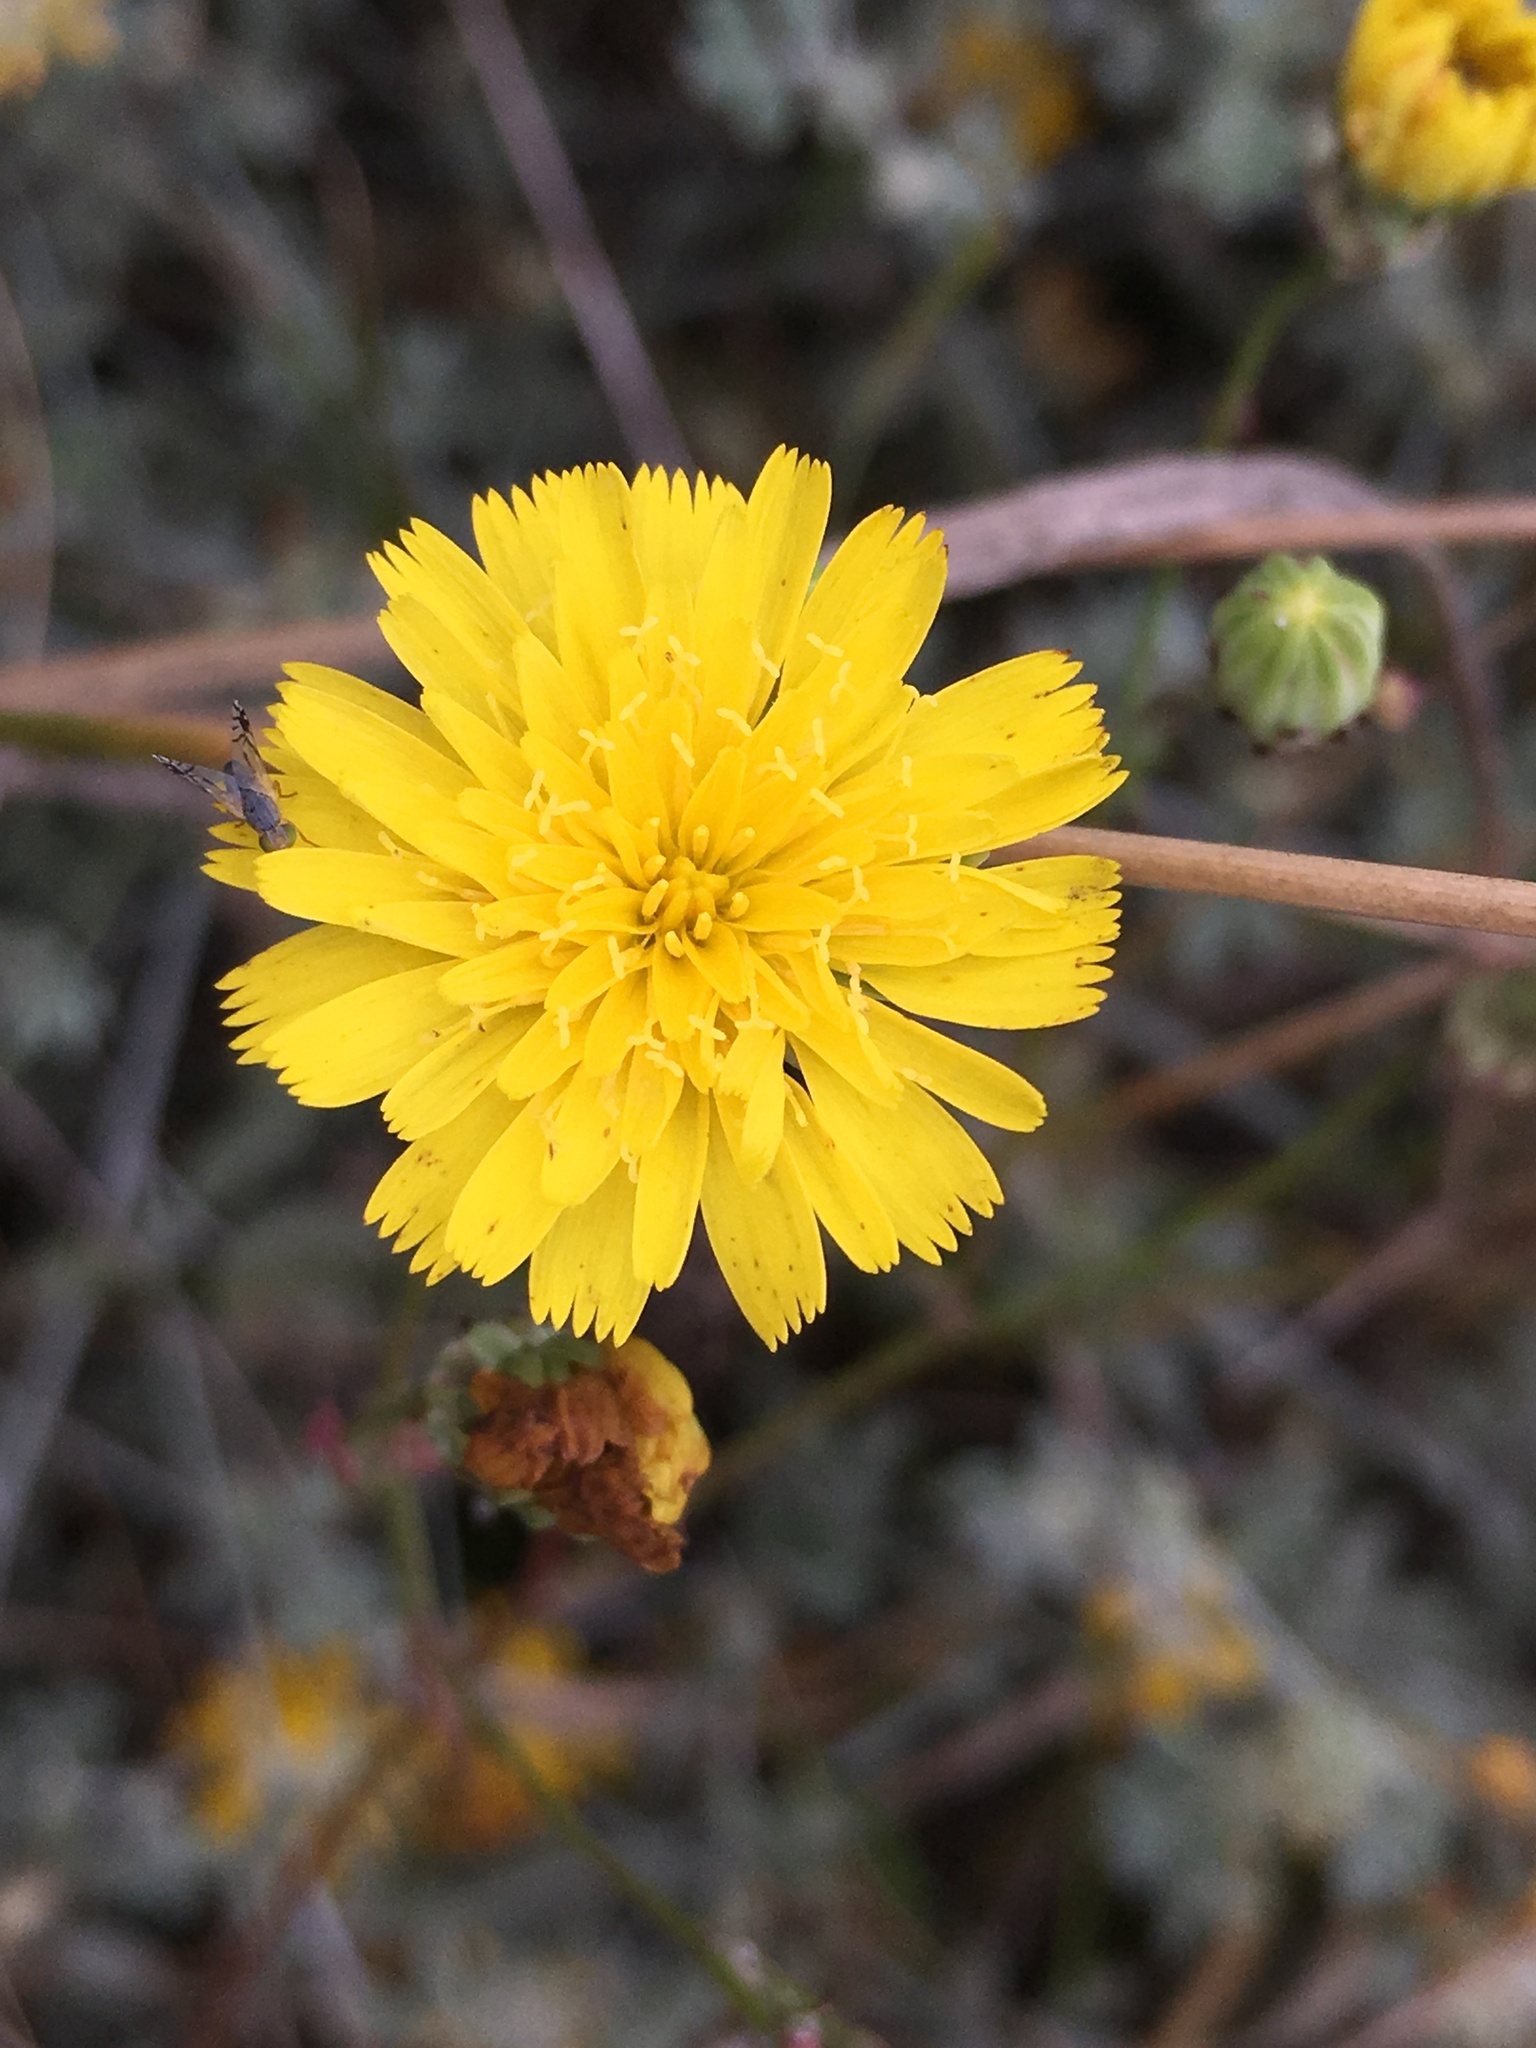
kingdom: Plantae
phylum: Tracheophyta
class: Magnoliopsida
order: Asterales
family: Asteraceae
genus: Malacothrix
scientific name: Malacothrix foliosa
